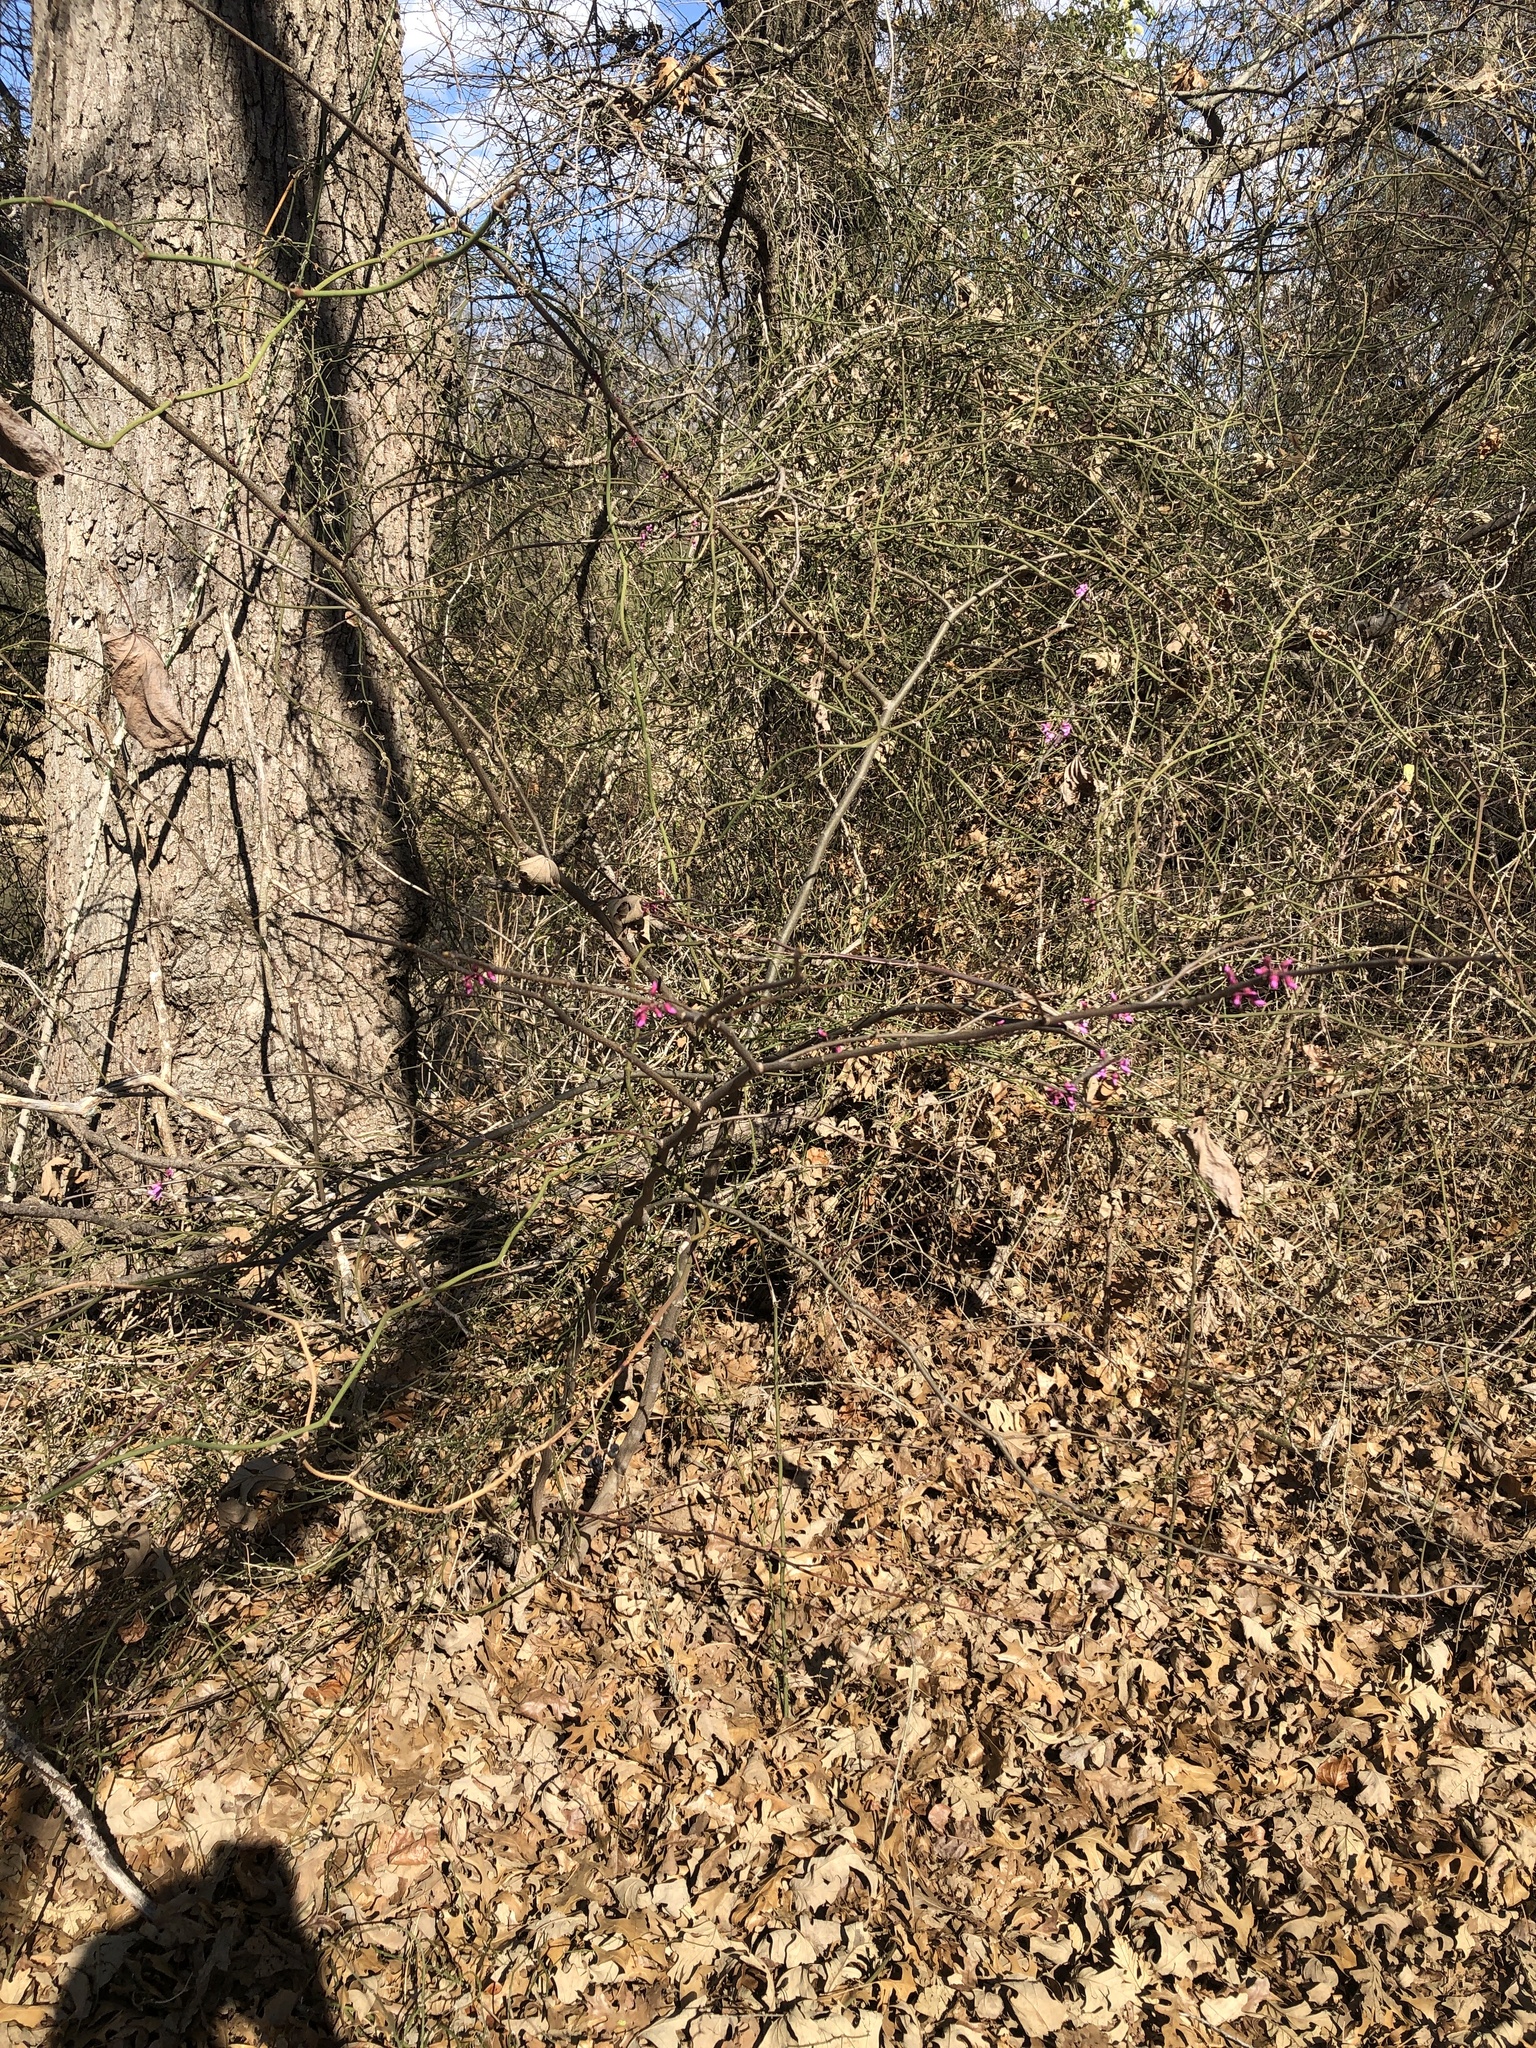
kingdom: Plantae
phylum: Tracheophyta
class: Magnoliopsida
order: Fabales
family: Fabaceae
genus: Cercis
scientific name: Cercis canadensis
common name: Eastern redbud
